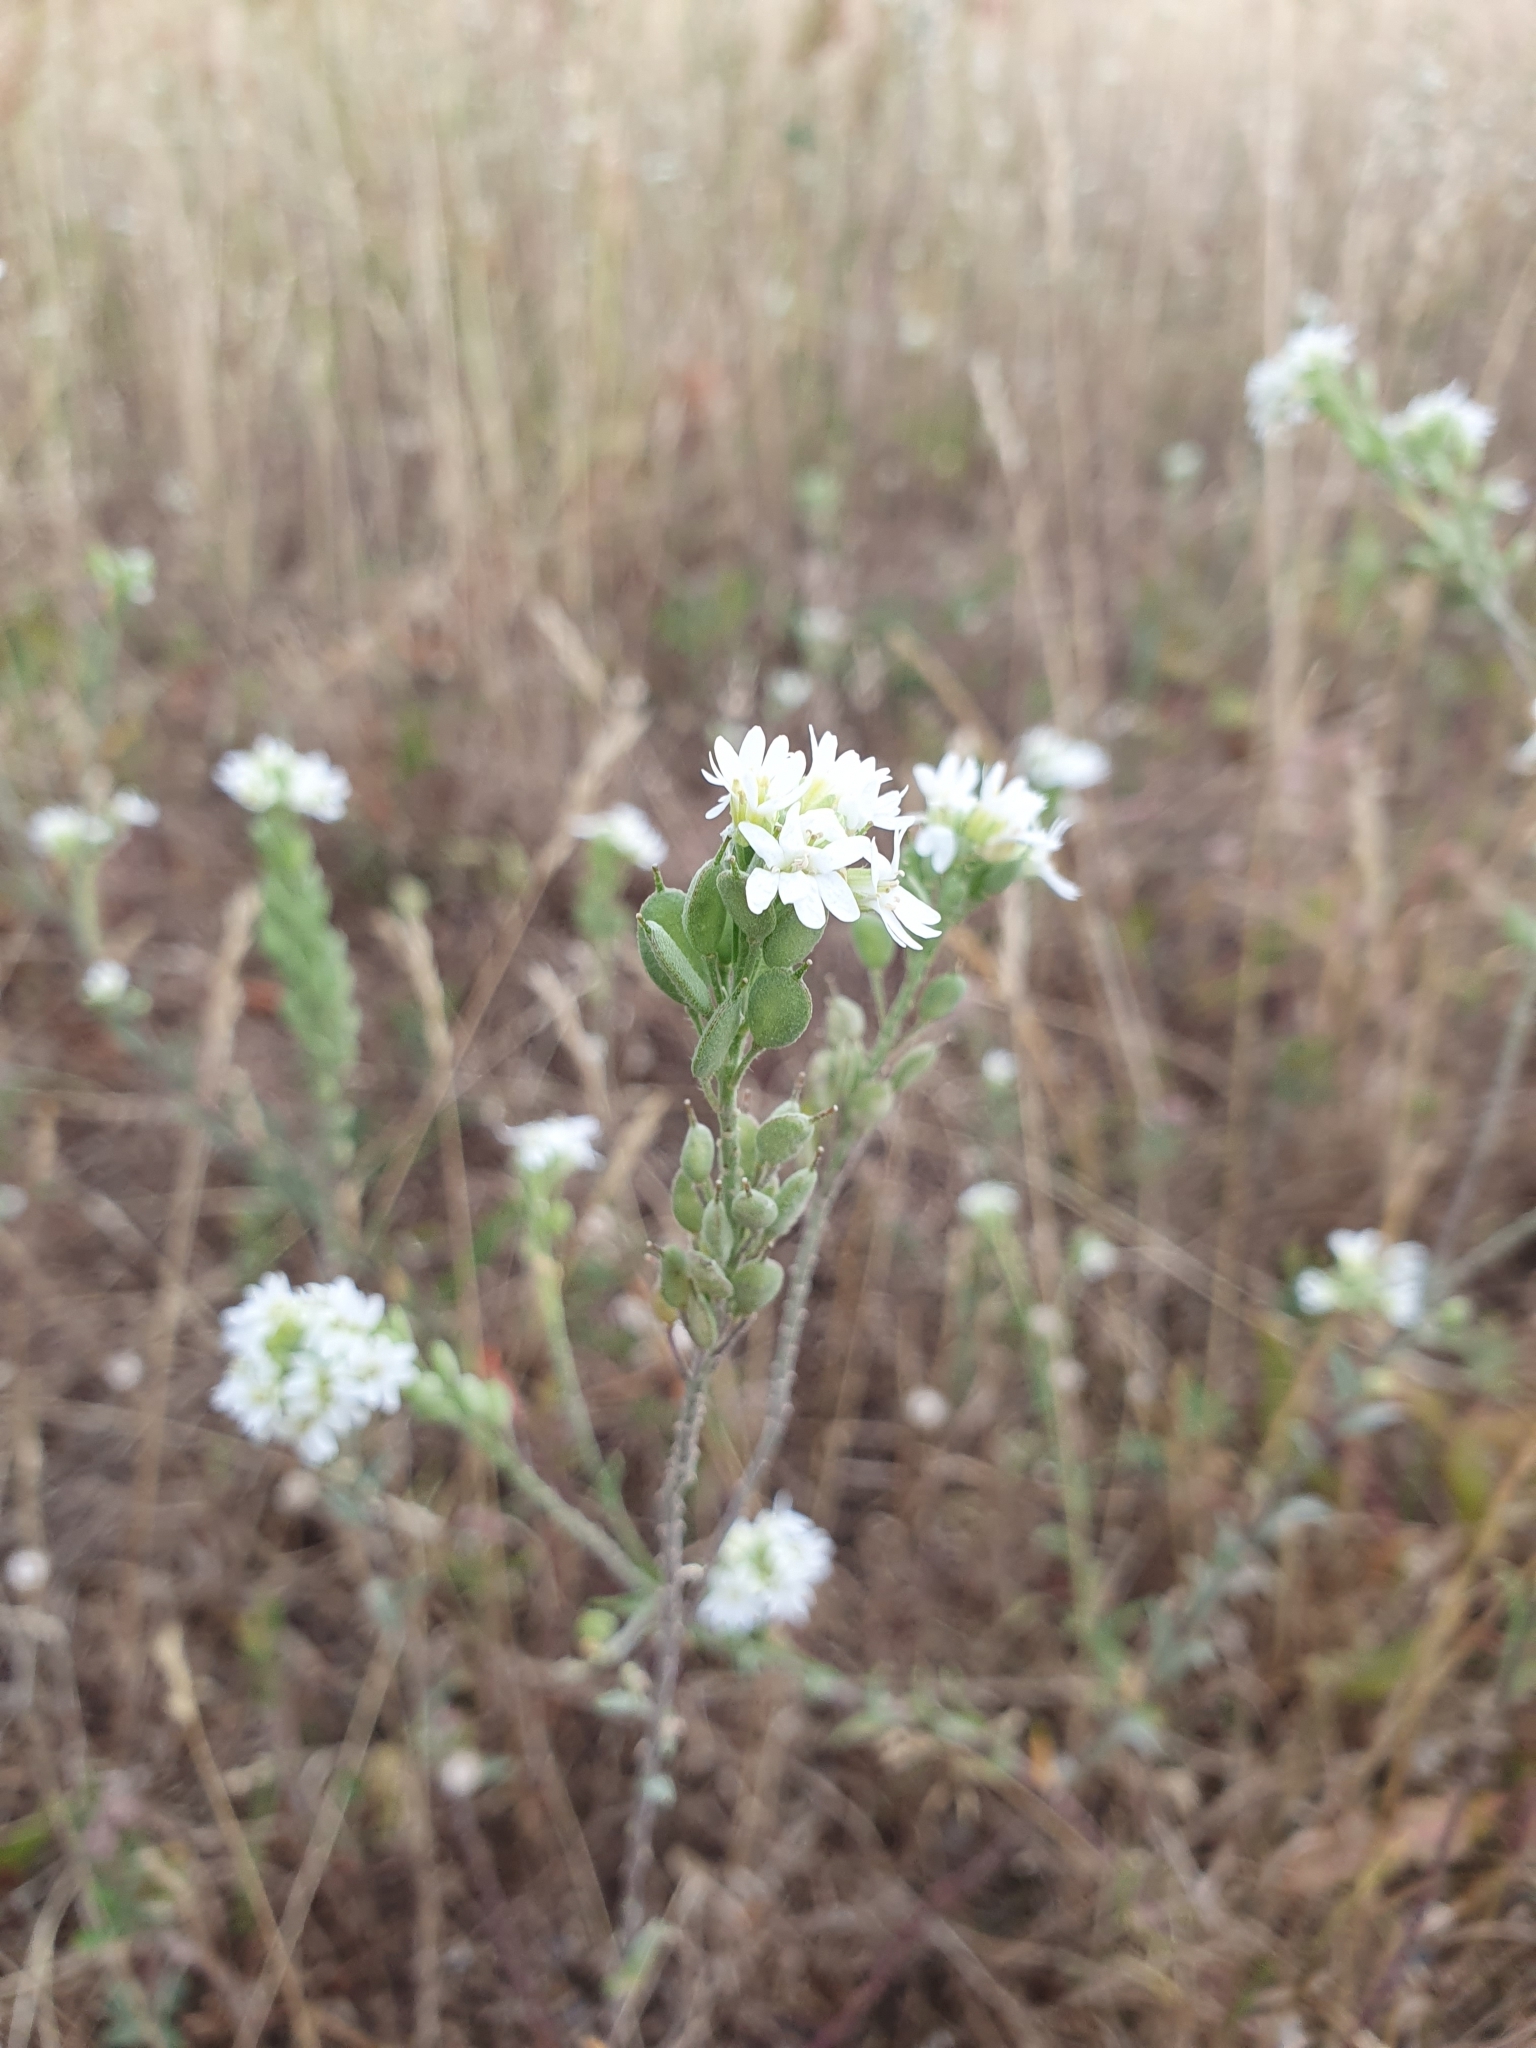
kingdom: Plantae
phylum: Tracheophyta
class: Magnoliopsida
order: Brassicales
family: Brassicaceae
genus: Berteroa
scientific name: Berteroa incana
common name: Hoary alison
